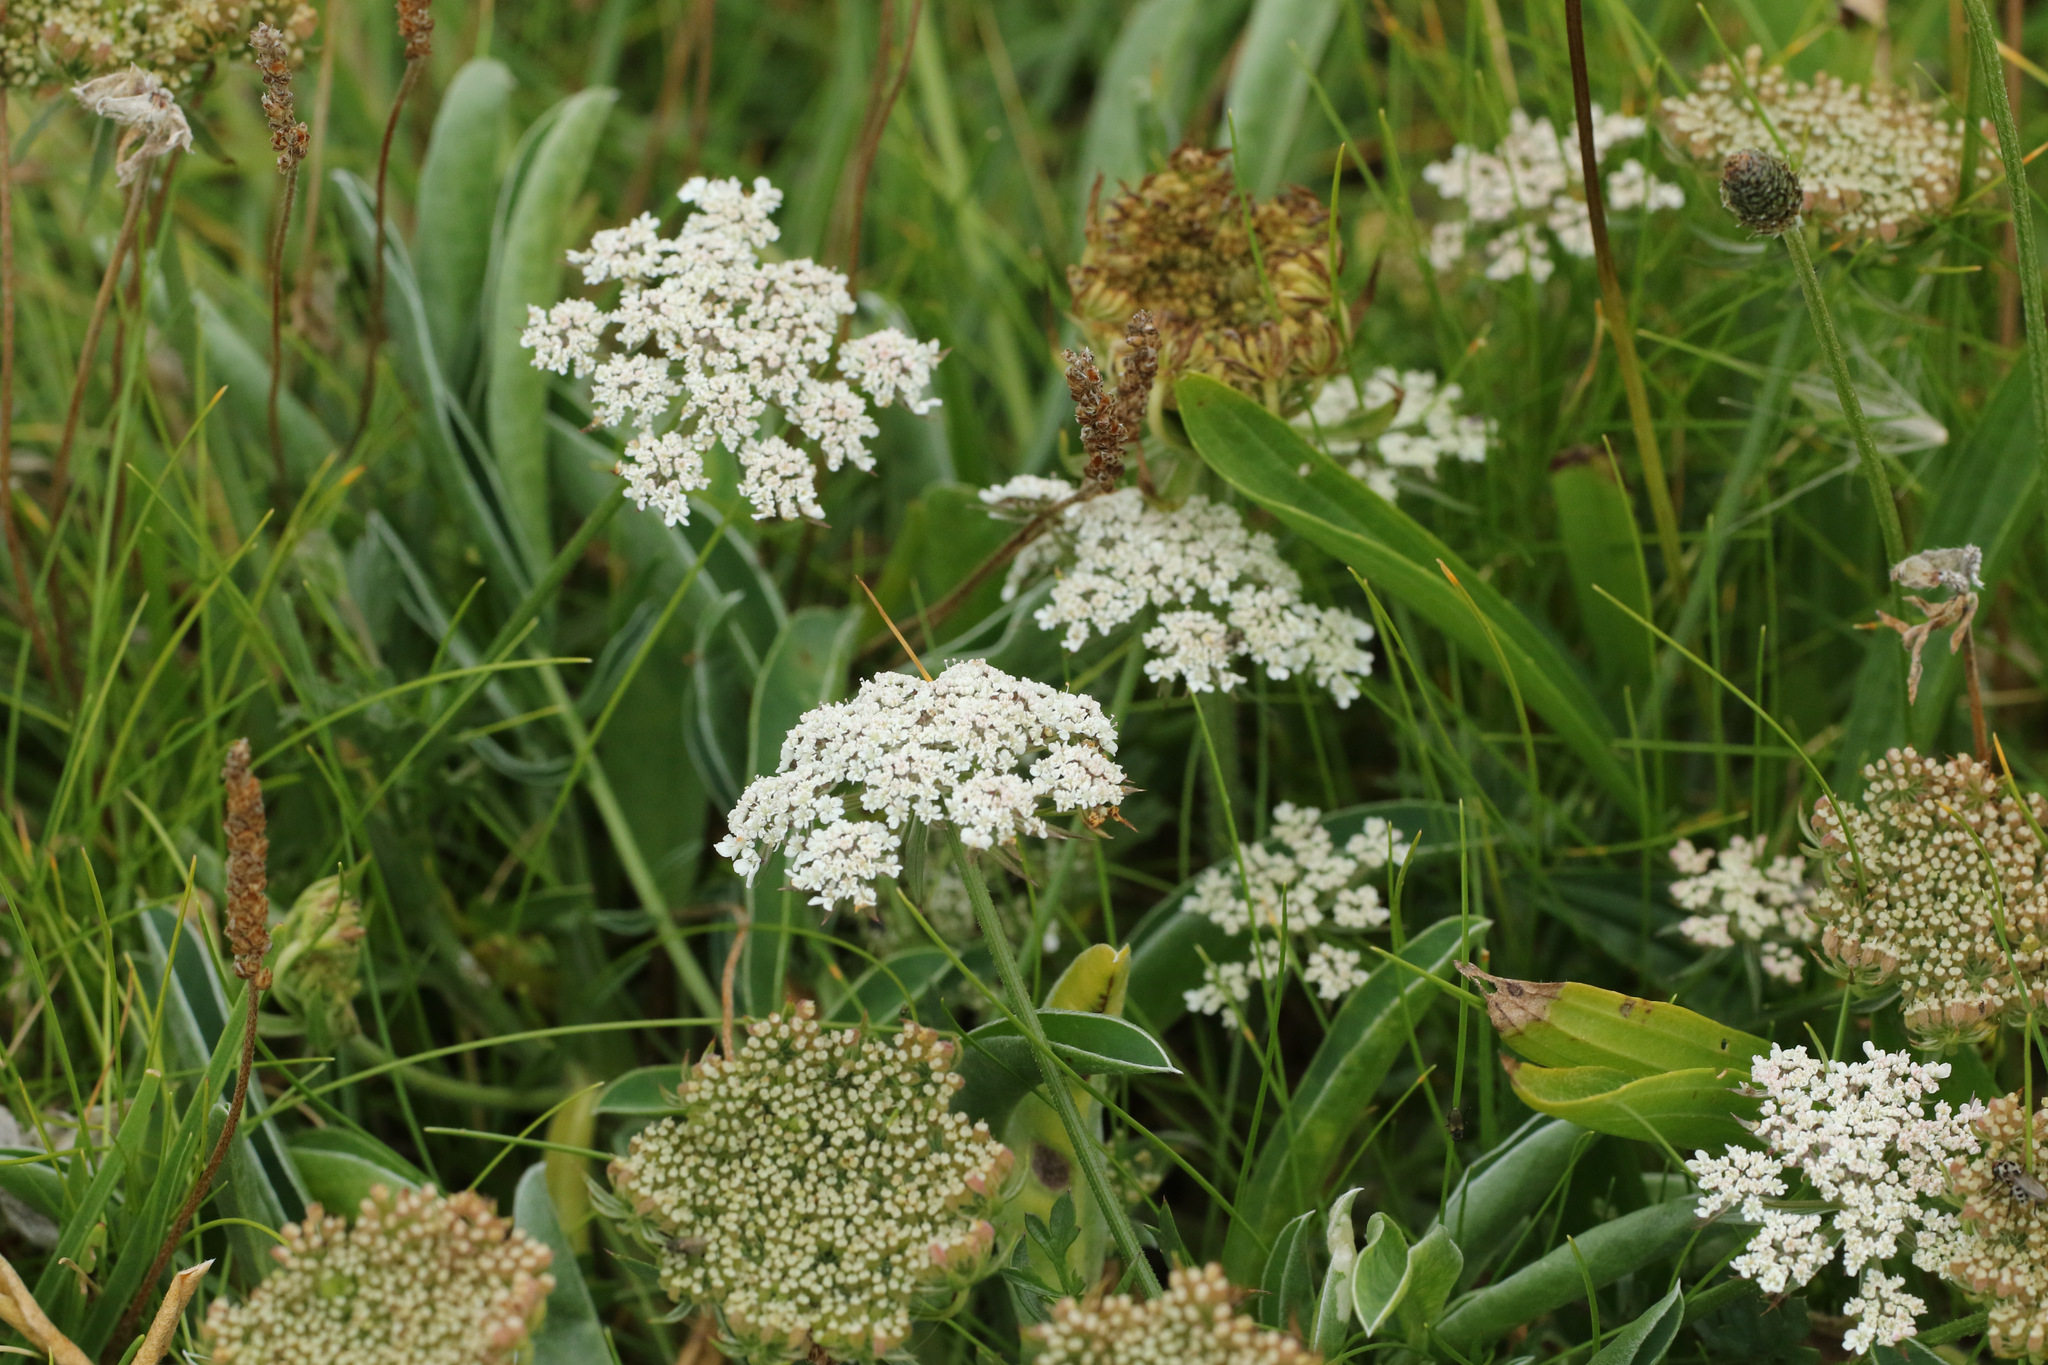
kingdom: Plantae
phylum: Tracheophyta
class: Magnoliopsida
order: Apiales
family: Apiaceae
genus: Daucus
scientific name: Daucus carota
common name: Wild carrot
